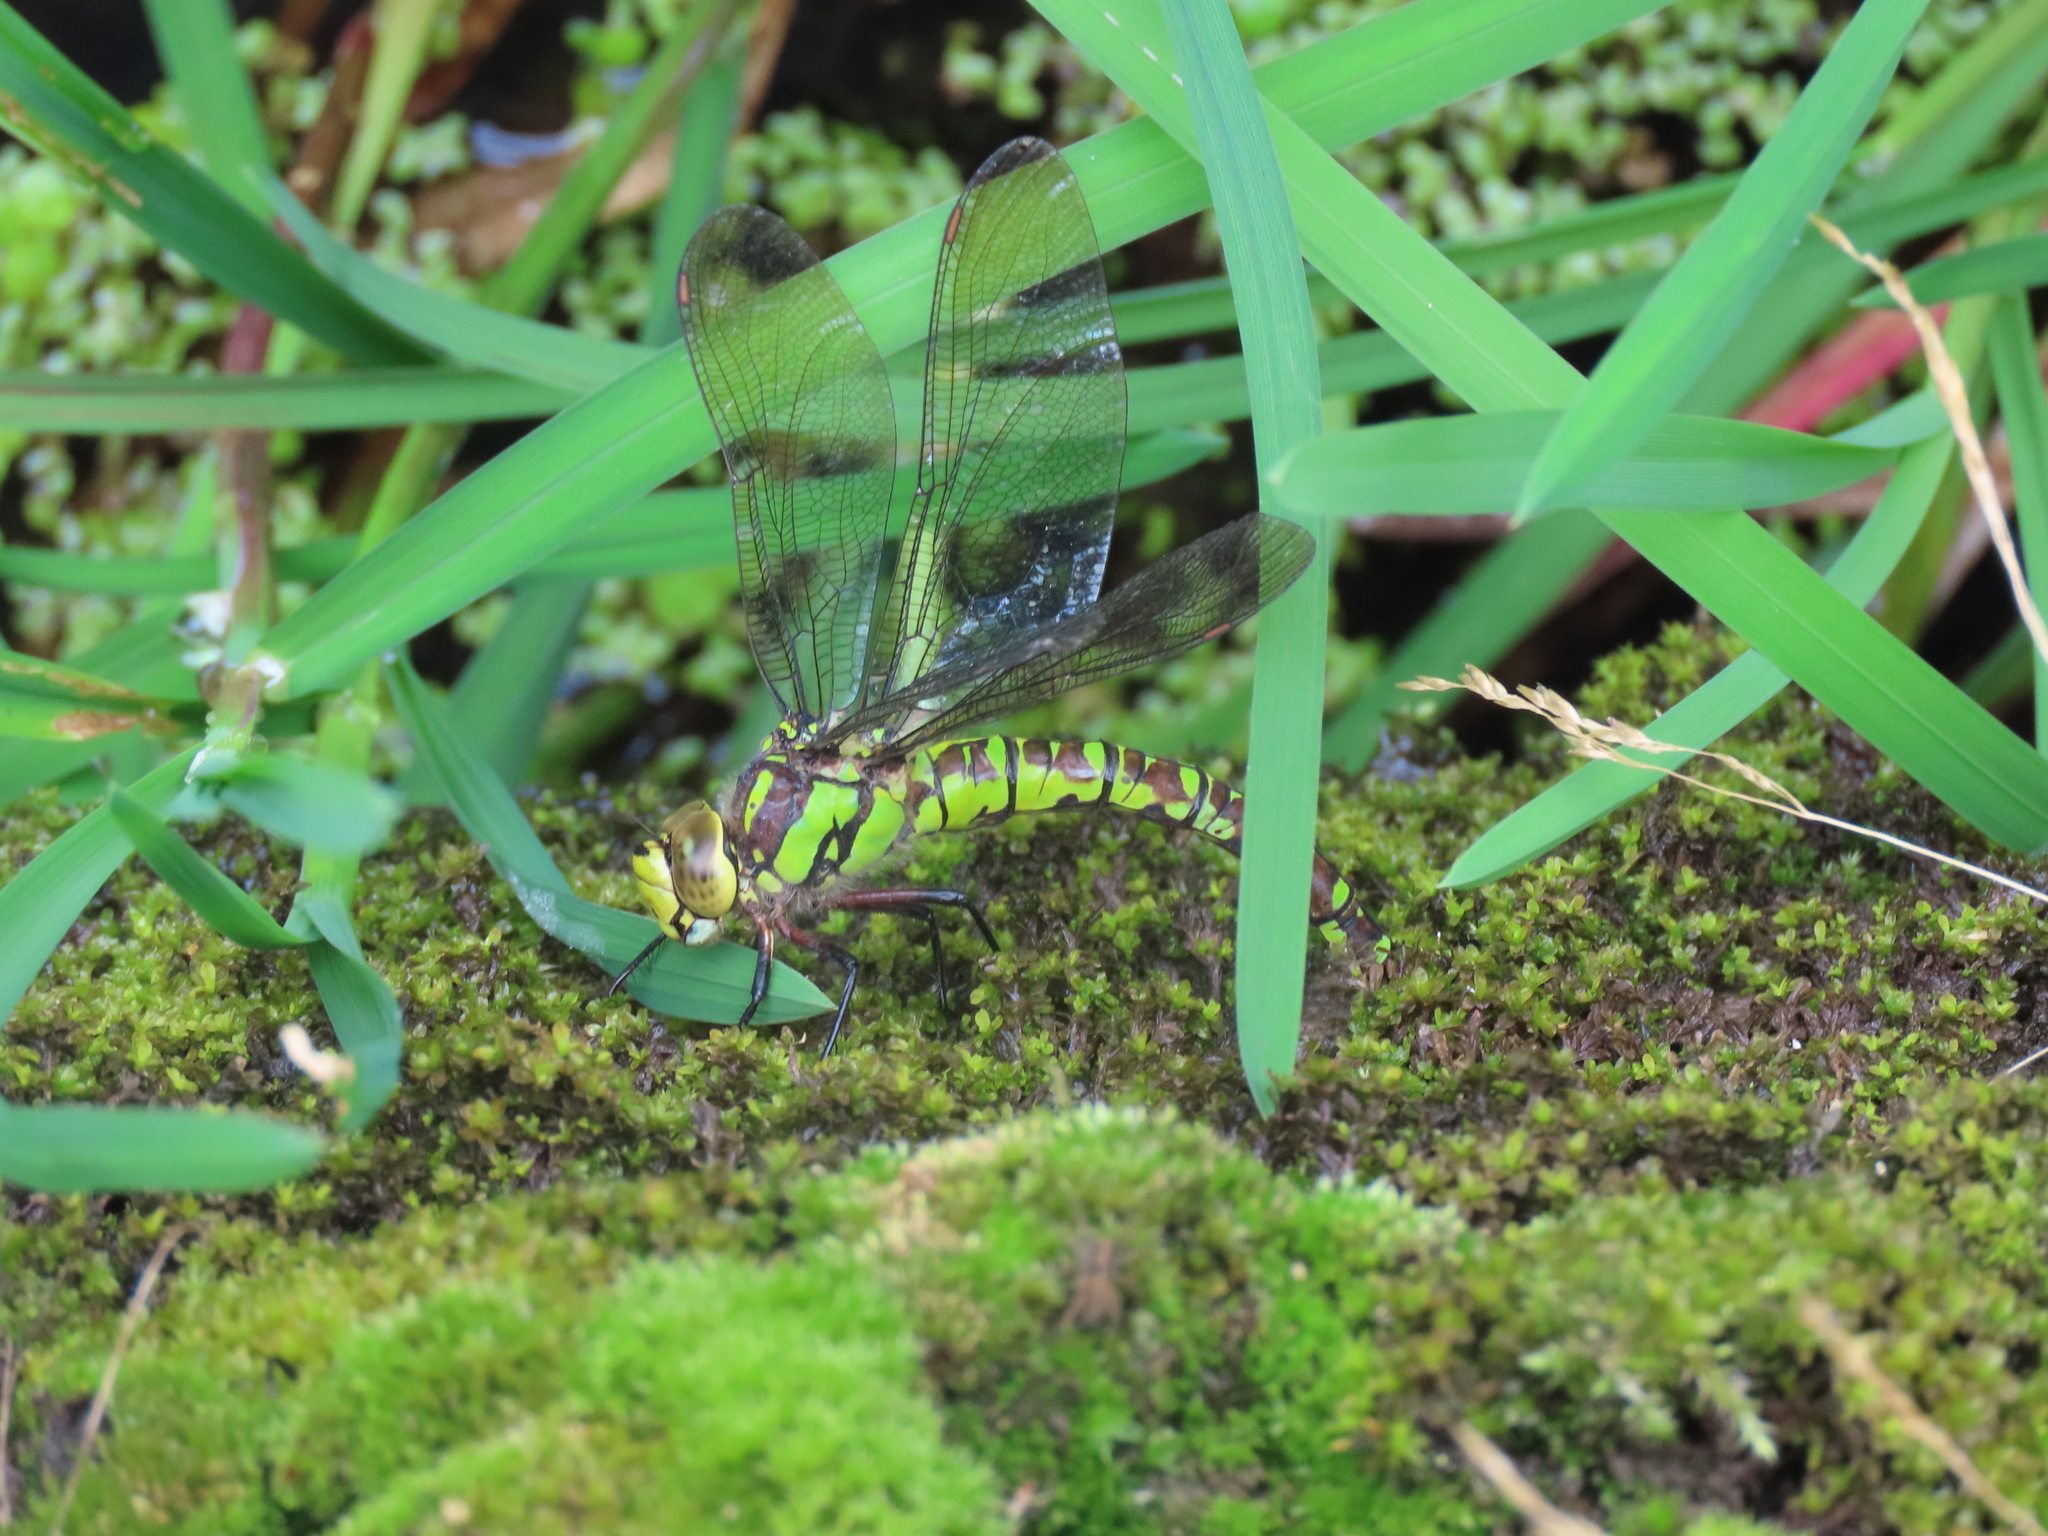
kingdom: Animalia
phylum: Arthropoda
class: Insecta
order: Odonata
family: Aeshnidae
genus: Aeshna
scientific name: Aeshna cyanea
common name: Southern hawker
